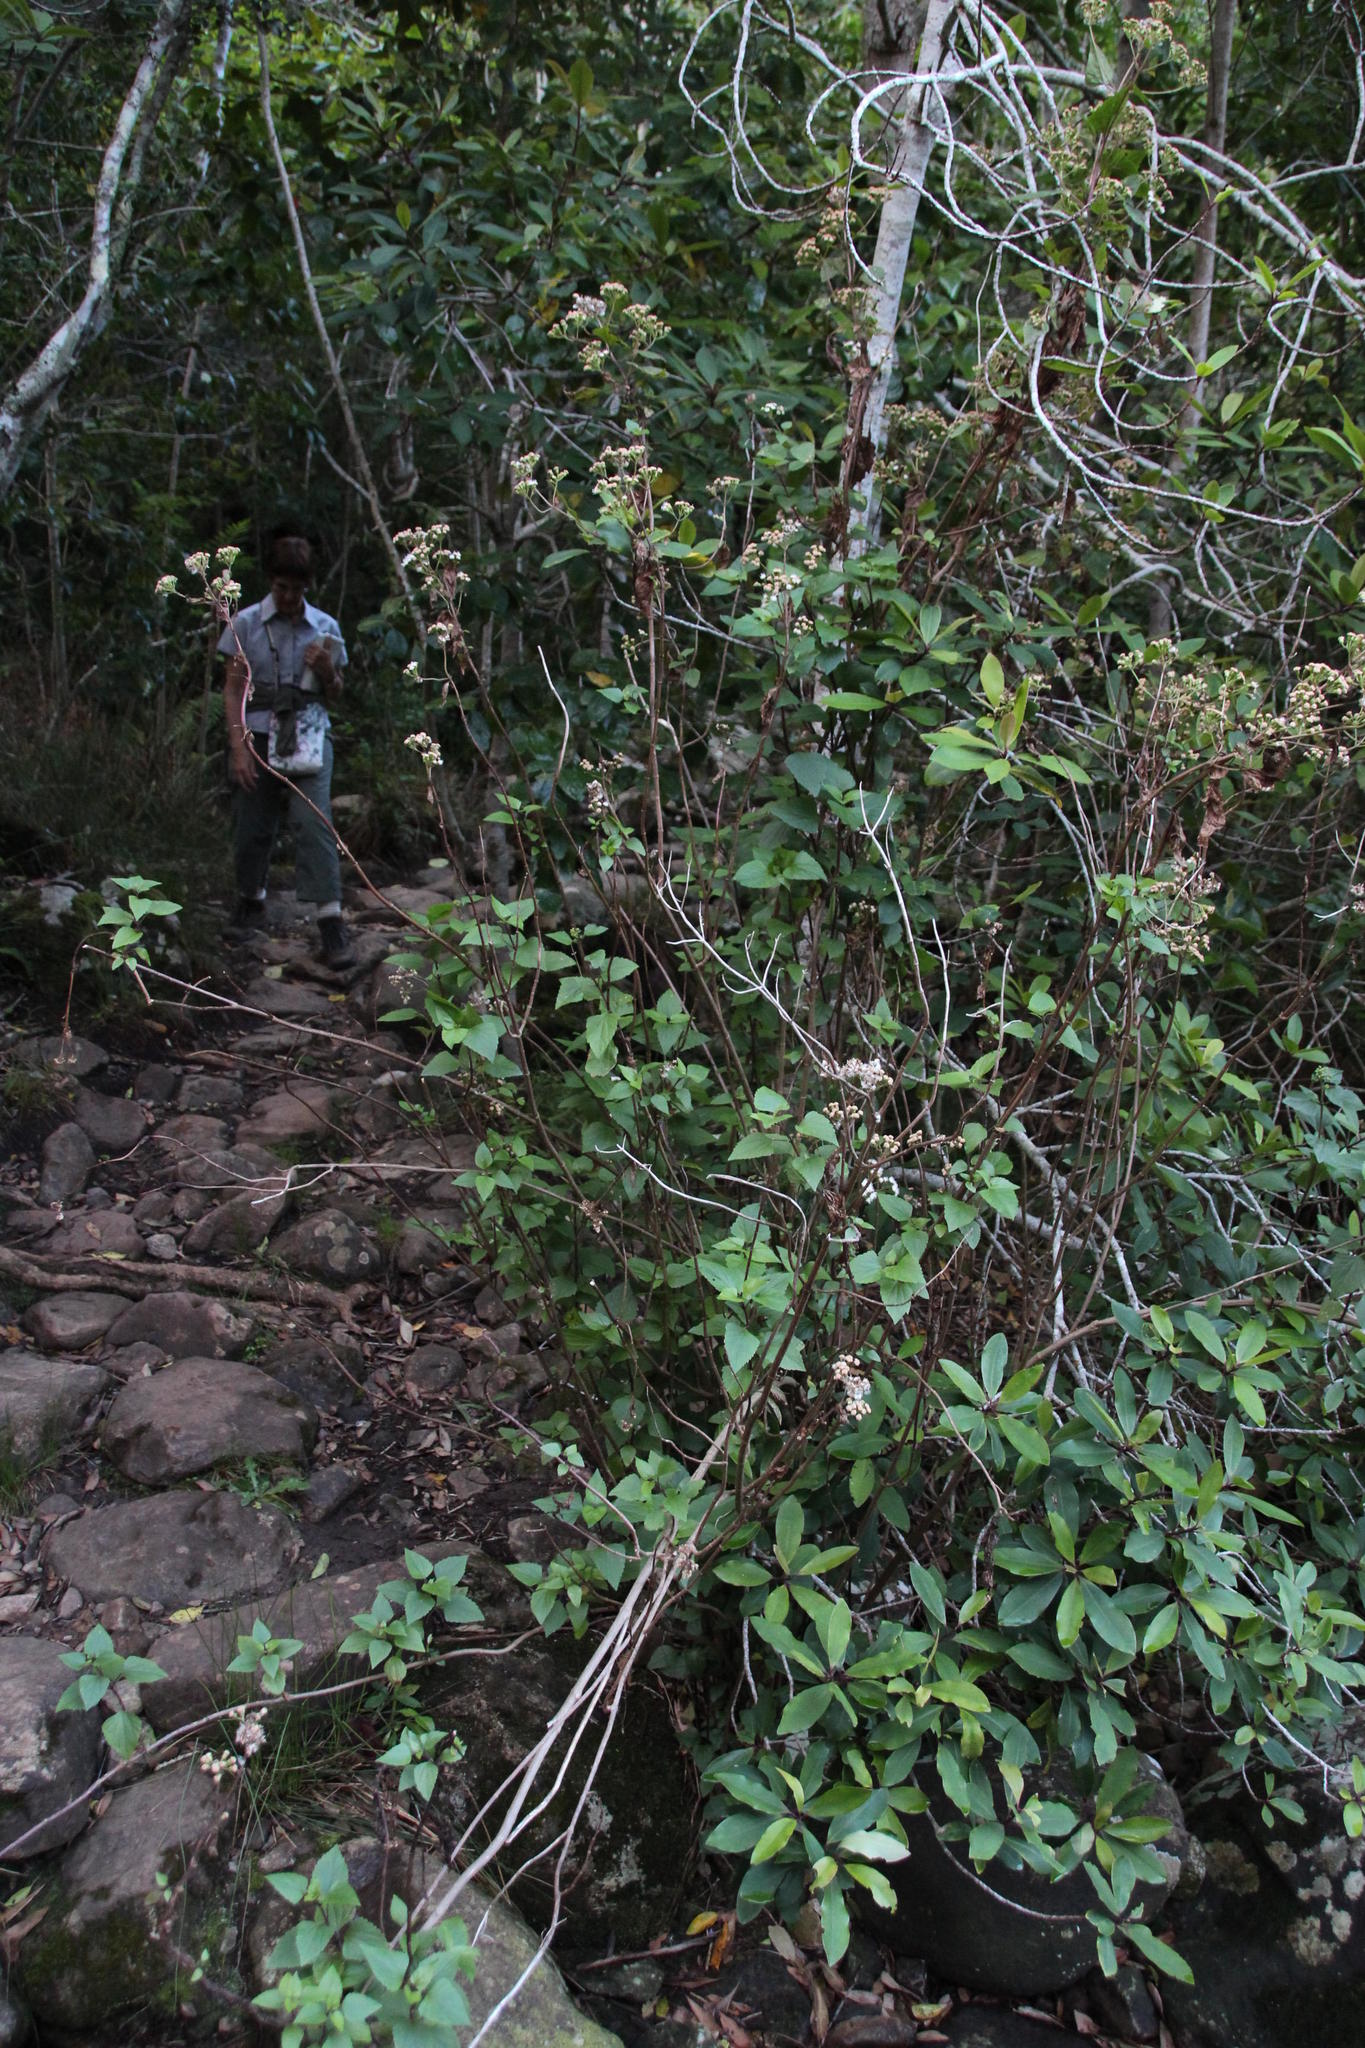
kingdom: Plantae
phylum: Tracheophyta
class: Magnoliopsida
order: Asterales
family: Asteraceae
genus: Ageratina
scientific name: Ageratina adenophora
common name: Sticky snakeroot
